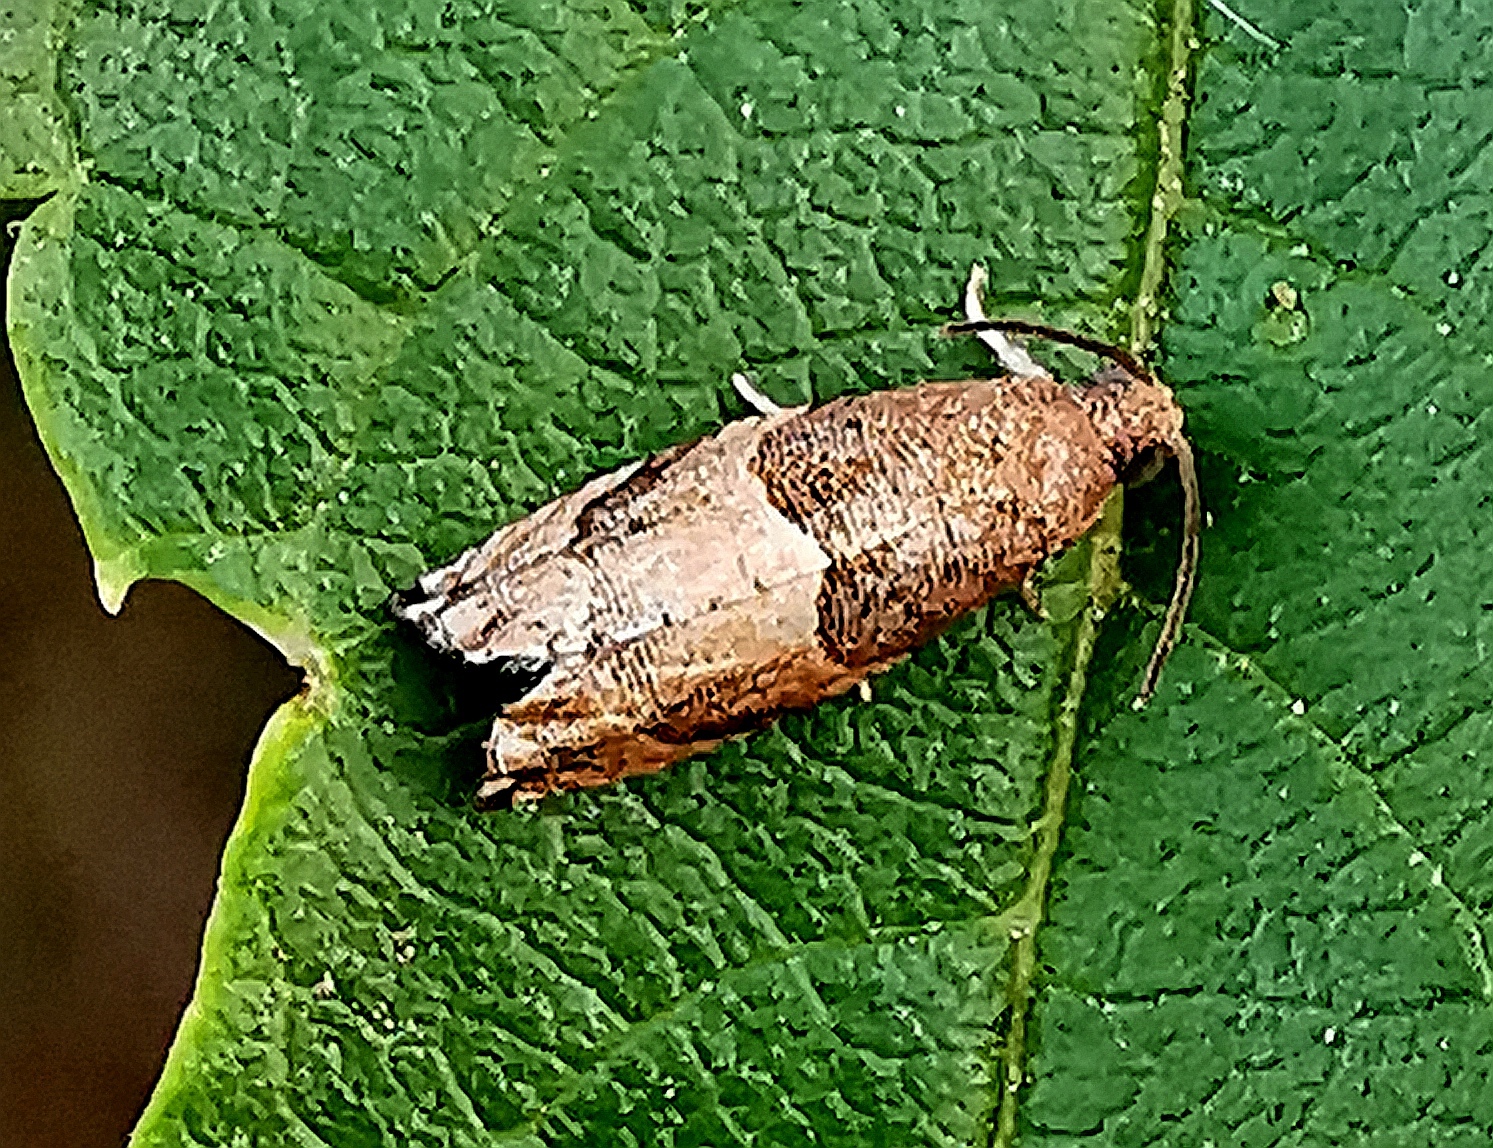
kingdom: Animalia
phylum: Arthropoda
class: Insecta
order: Lepidoptera
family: Tortricidae
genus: Gypsonoma
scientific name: Gypsonoma salicicolana
